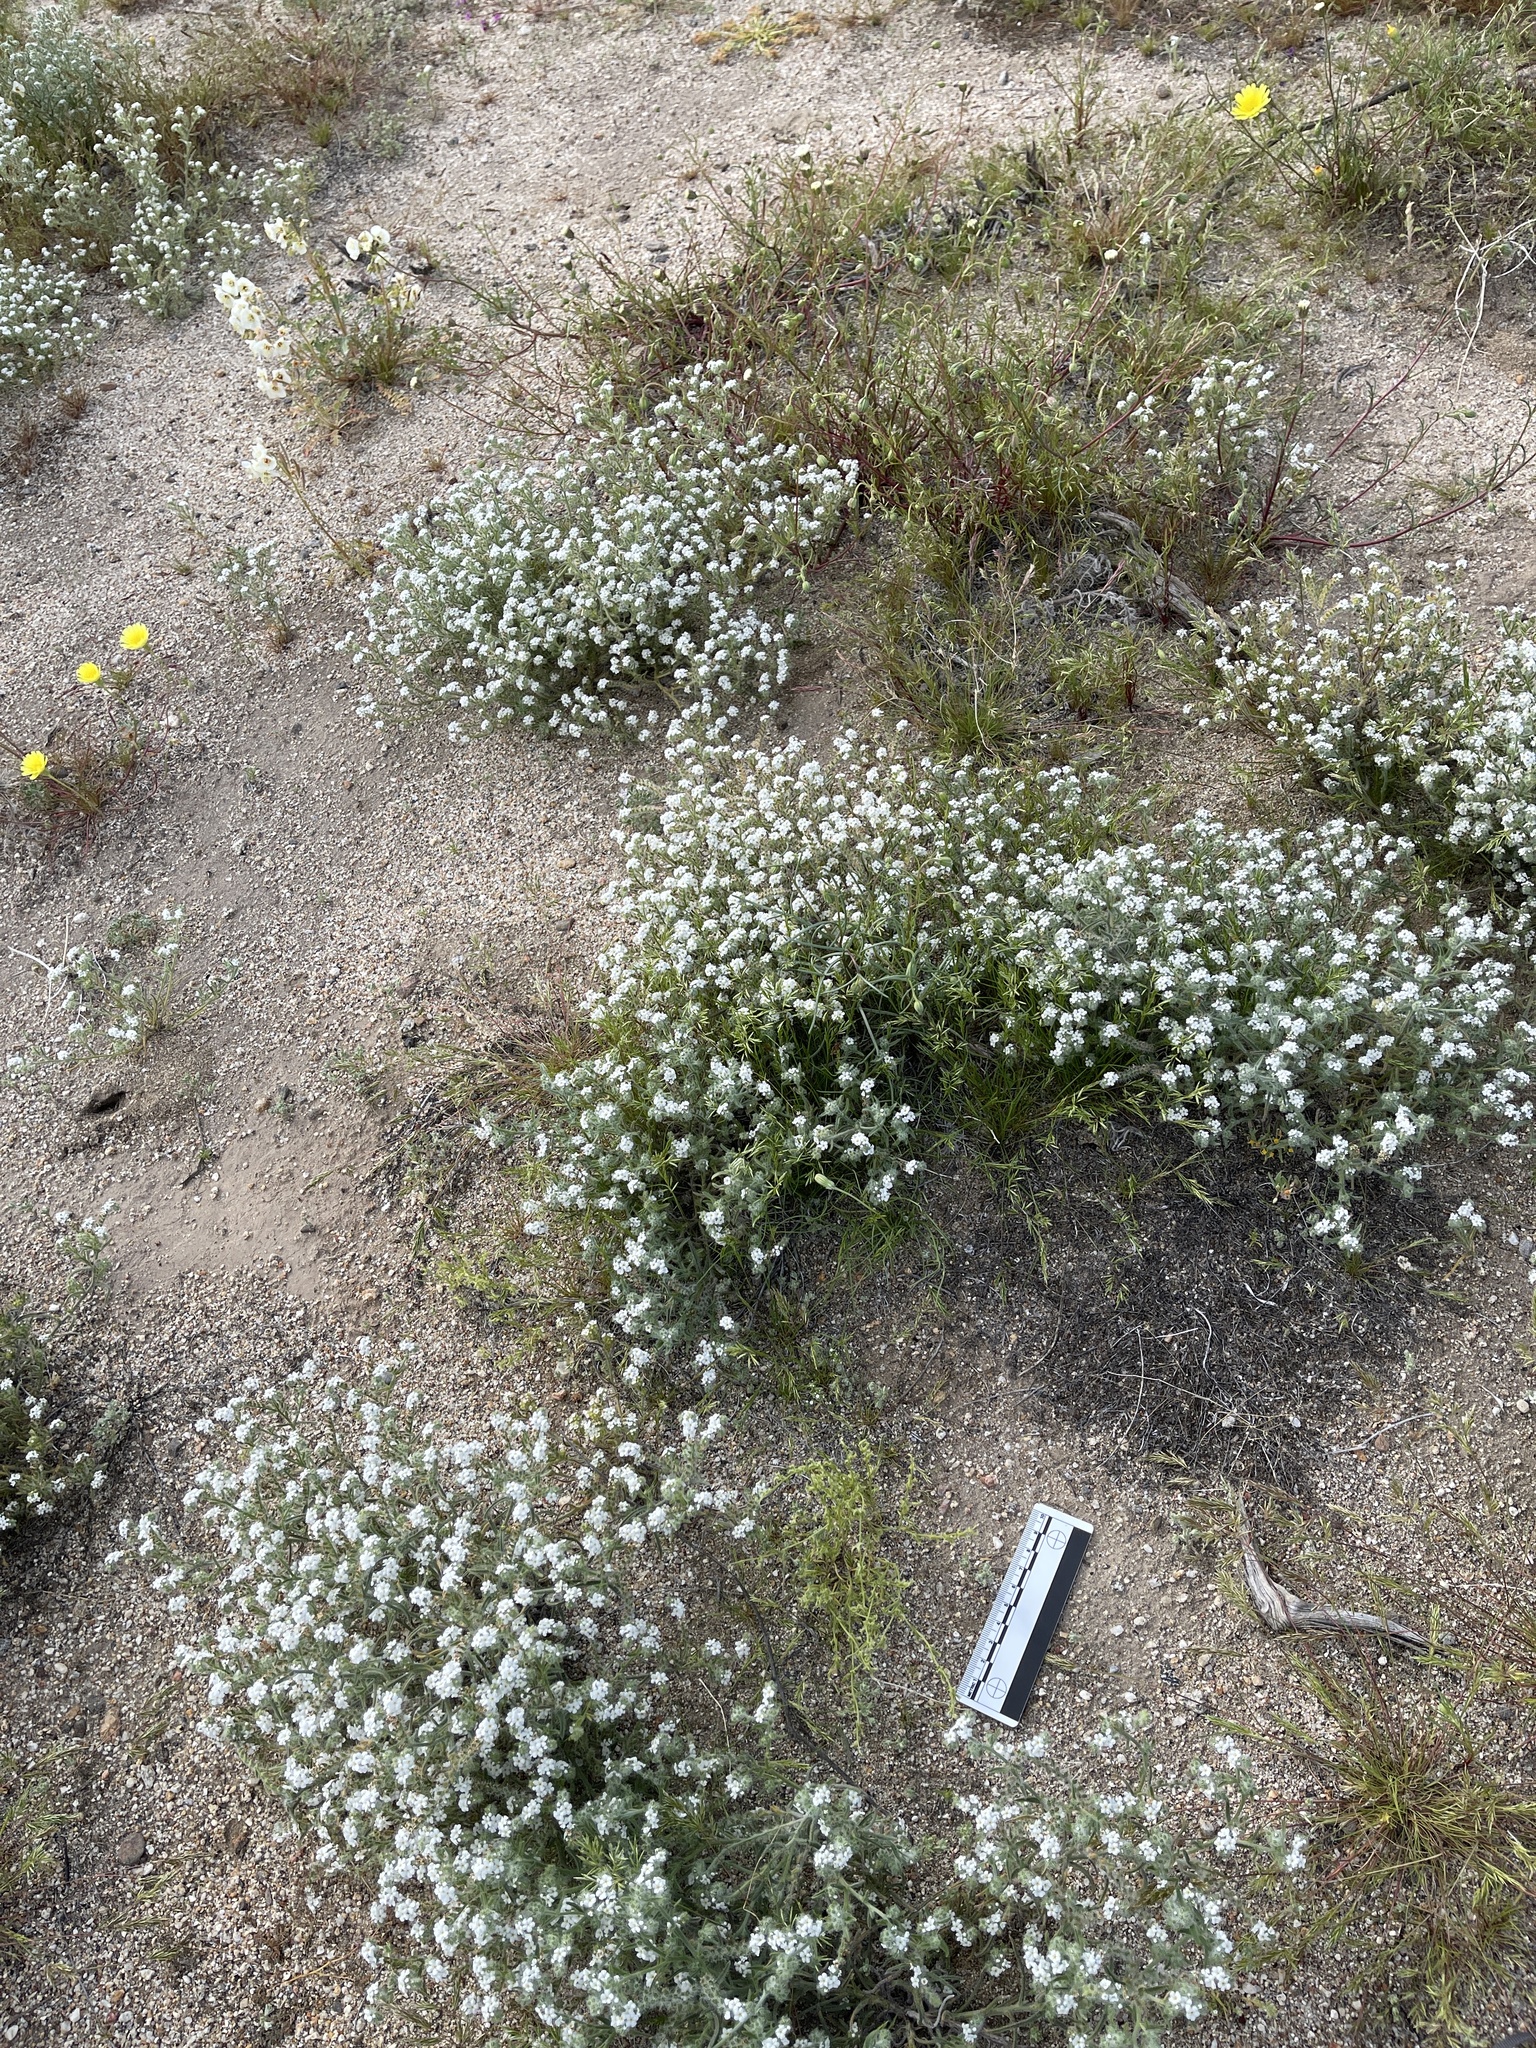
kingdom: Plantae
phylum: Tracheophyta
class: Magnoliopsida
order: Boraginales
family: Boraginaceae
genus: Pectocarya
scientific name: Pectocarya recurvata
